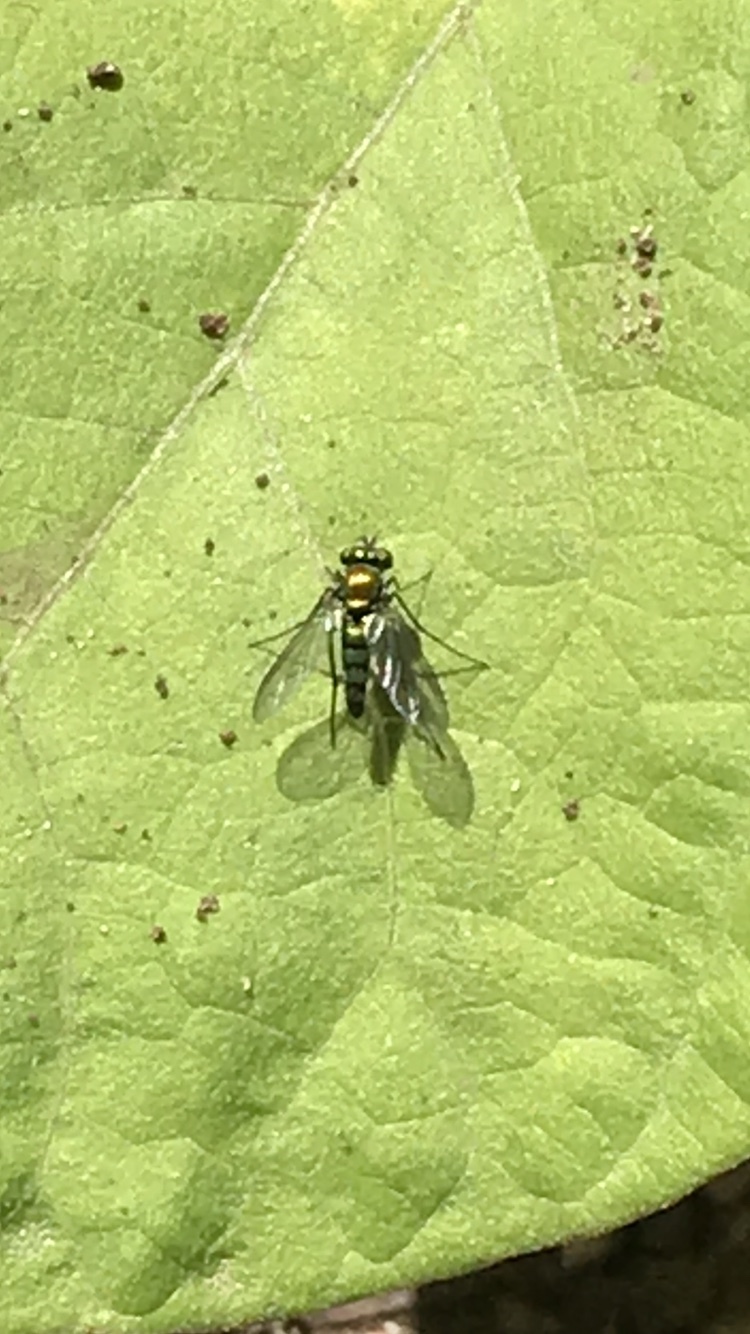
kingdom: Animalia
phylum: Arthropoda
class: Insecta
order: Diptera
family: Dolichopodidae
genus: Condylostylus
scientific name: Condylostylus longicornis
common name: Long-legged fly
